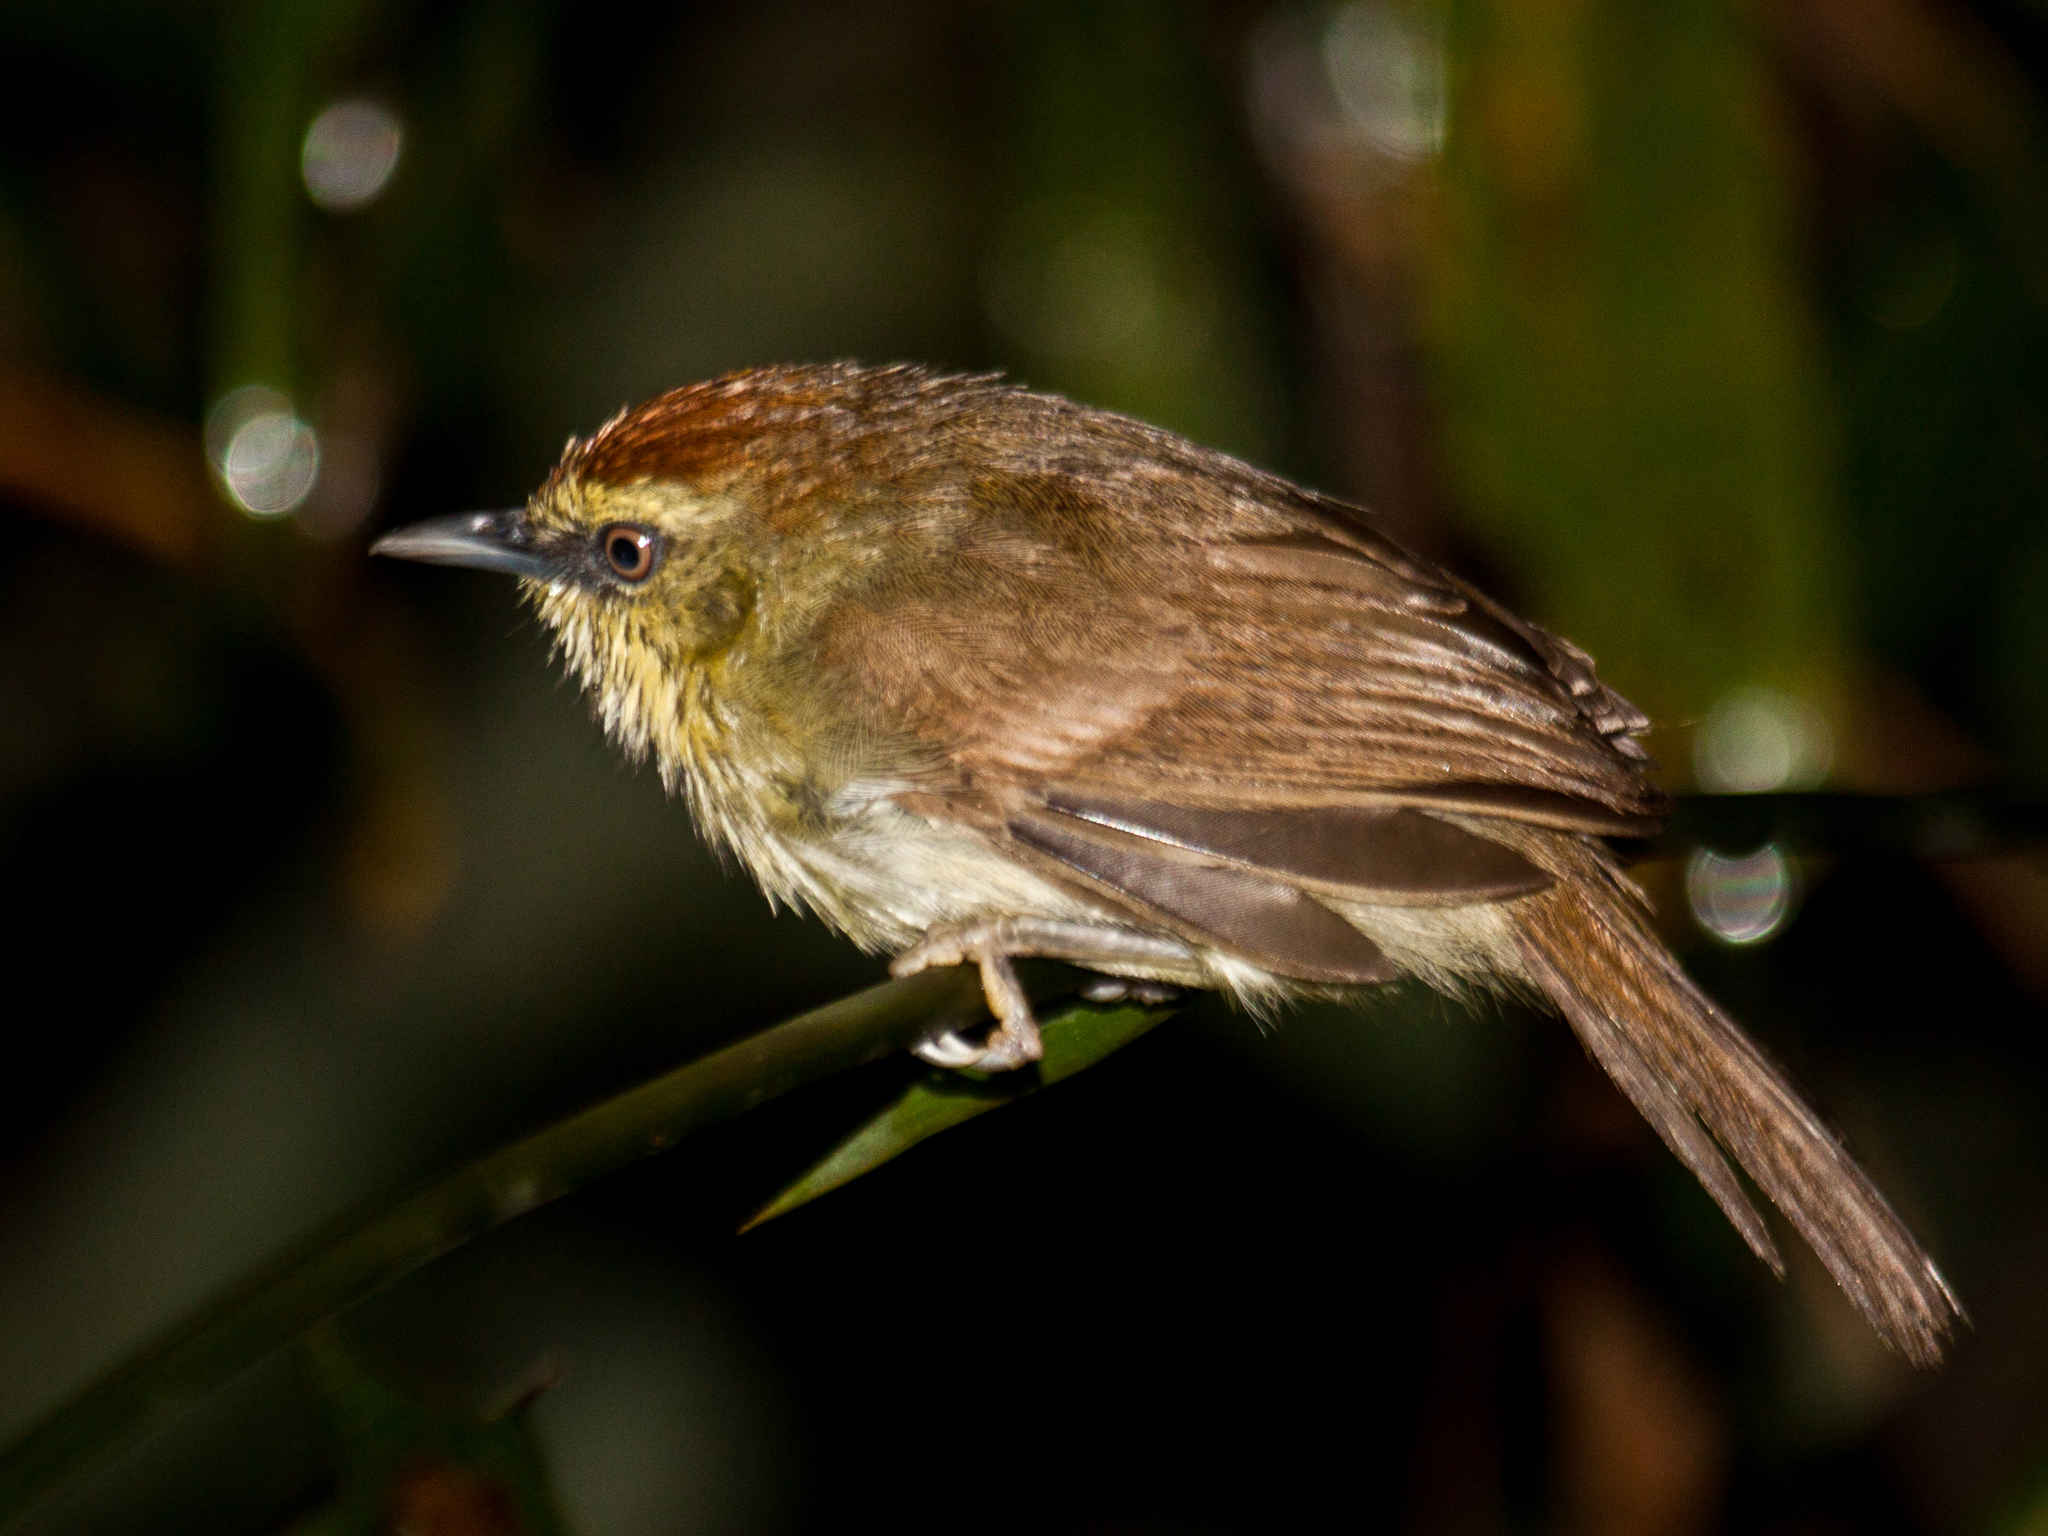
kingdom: Animalia
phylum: Chordata
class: Aves
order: Passeriformes
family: Timaliidae
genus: Macronus
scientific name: Macronus gularis
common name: Striped tit-babbler
